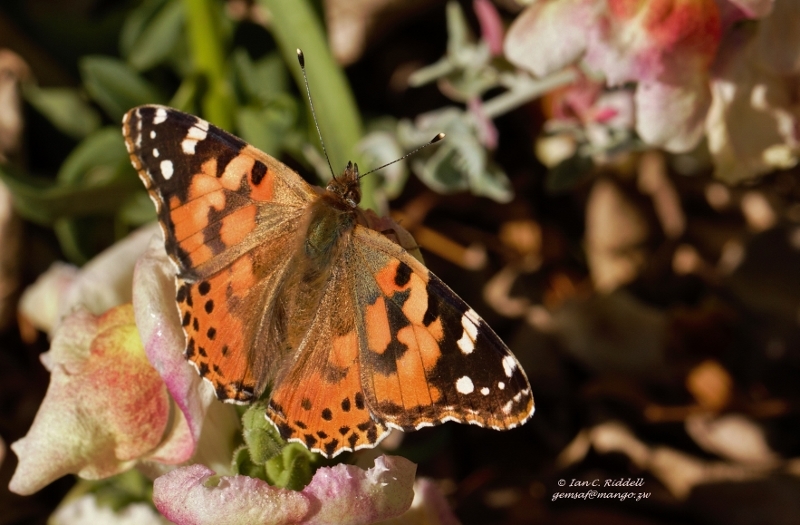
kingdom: Animalia
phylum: Arthropoda
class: Insecta
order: Lepidoptera
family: Nymphalidae
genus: Vanessa
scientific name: Vanessa cardui
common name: Painted lady
